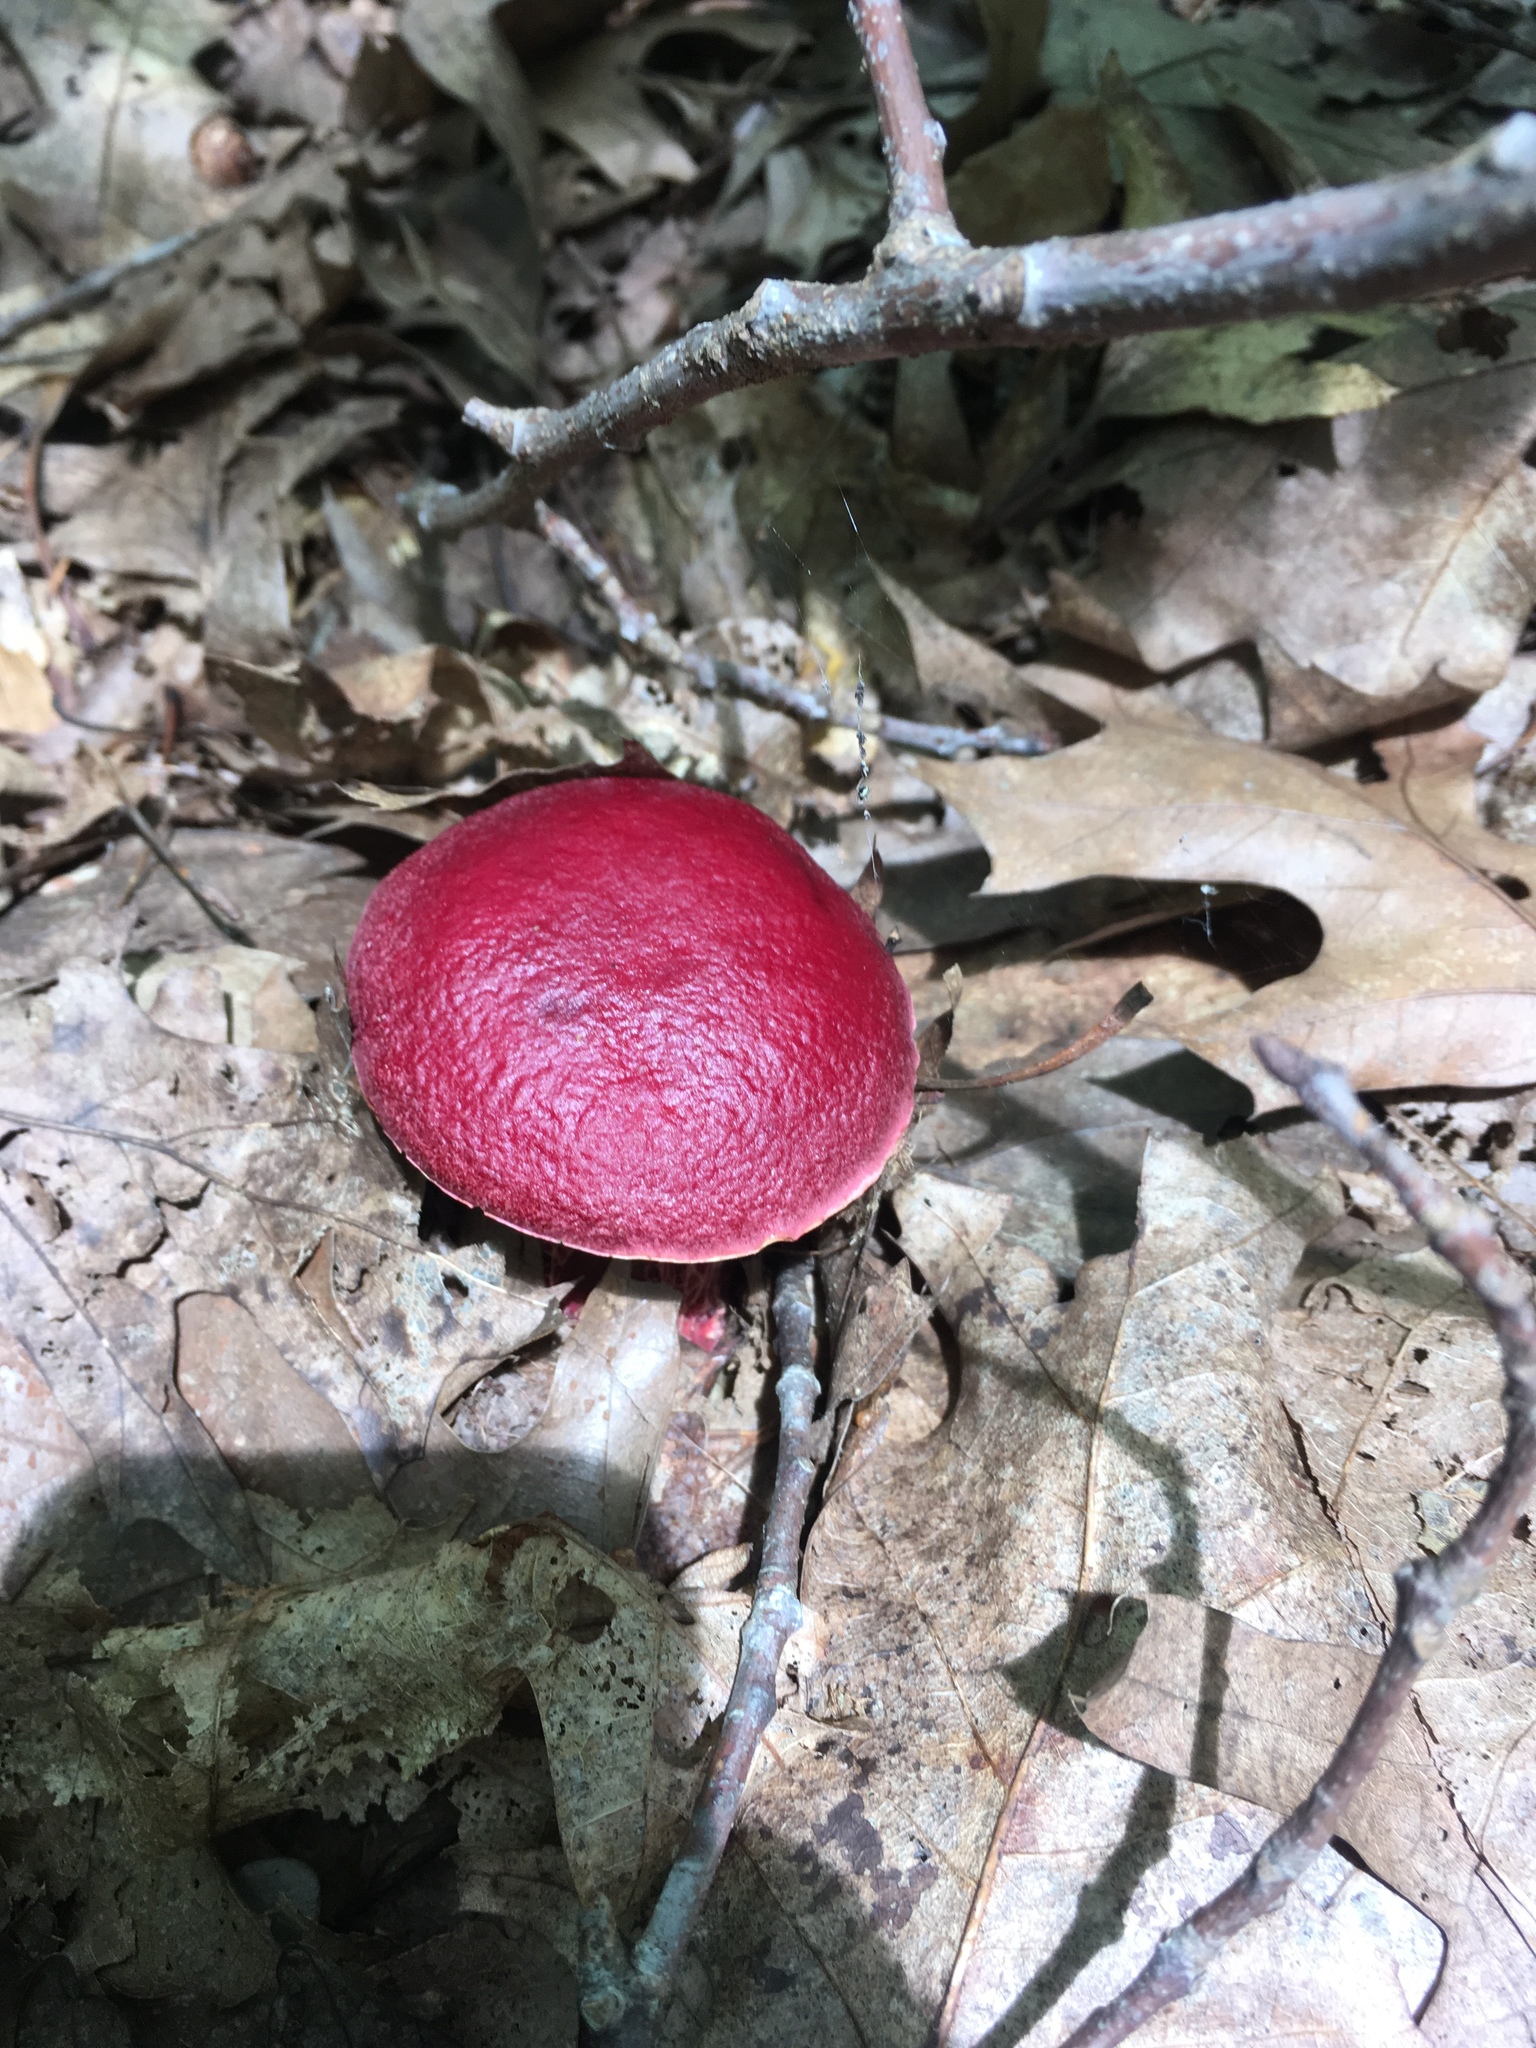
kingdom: Fungi
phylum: Basidiomycota
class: Agaricomycetes
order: Boletales
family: Boletaceae
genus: Butyriboletus
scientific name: Butyriboletus frostii
